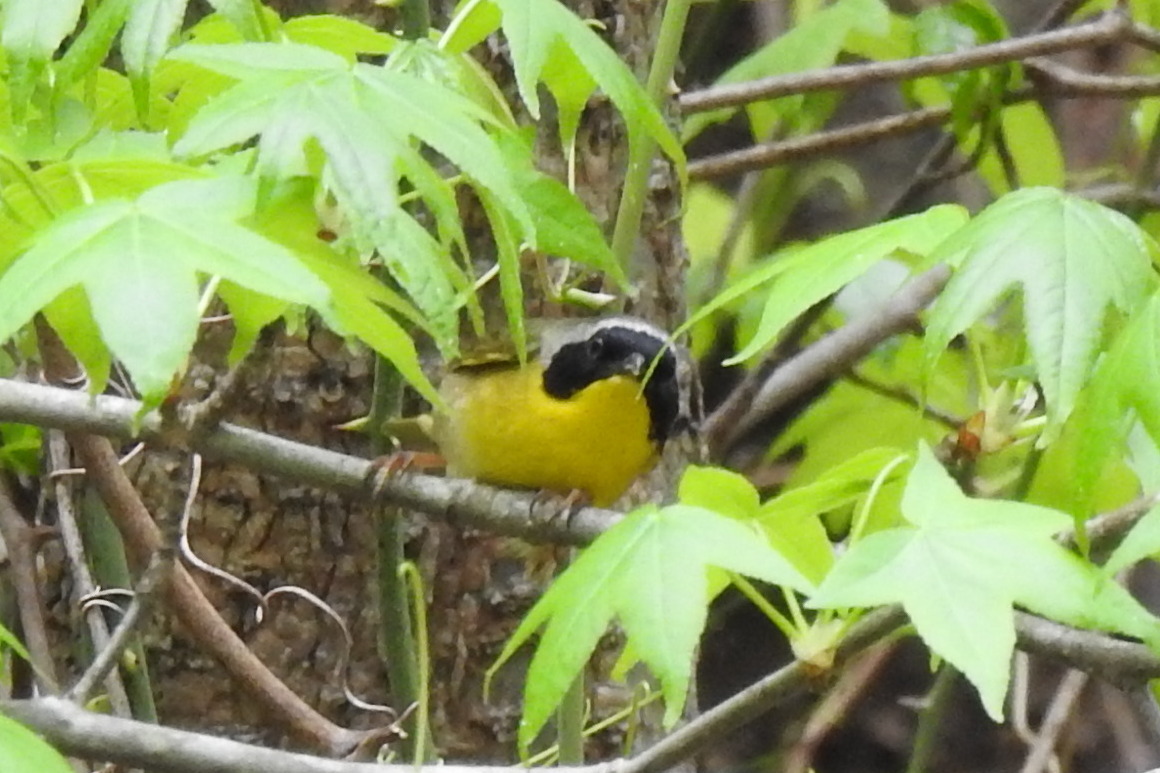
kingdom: Animalia
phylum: Chordata
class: Aves
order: Passeriformes
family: Parulidae
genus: Geothlypis
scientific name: Geothlypis trichas
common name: Common yellowthroat
